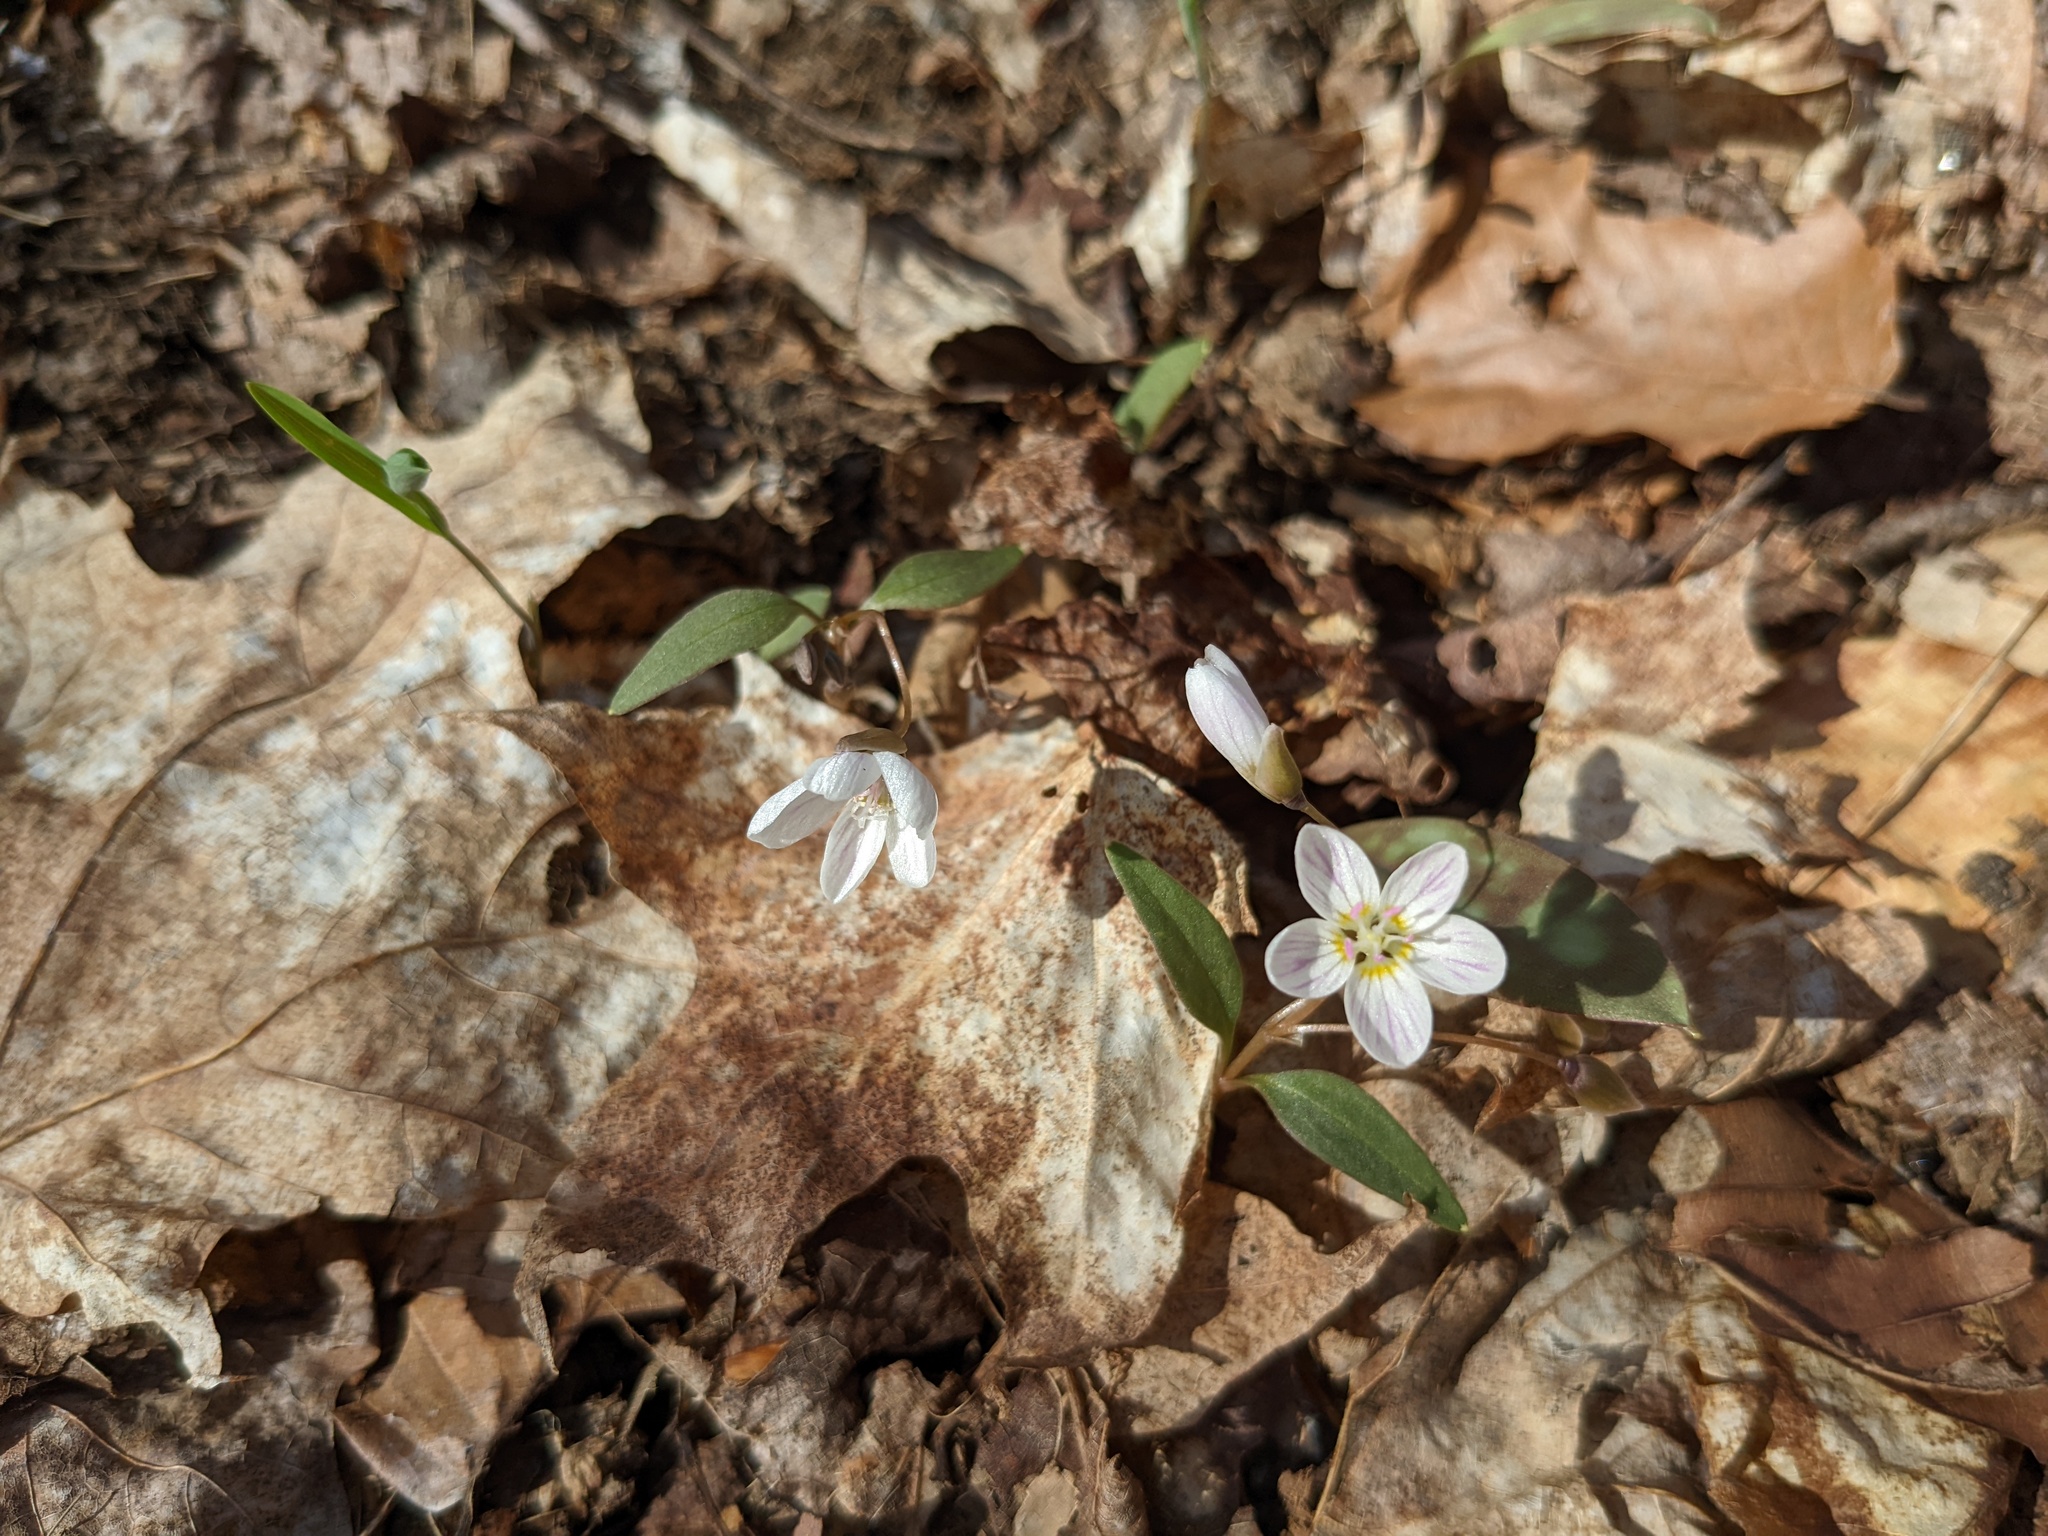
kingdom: Plantae
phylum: Tracheophyta
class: Magnoliopsida
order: Caryophyllales
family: Montiaceae
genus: Claytonia
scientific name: Claytonia caroliniana
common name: Carolina spring beauty
